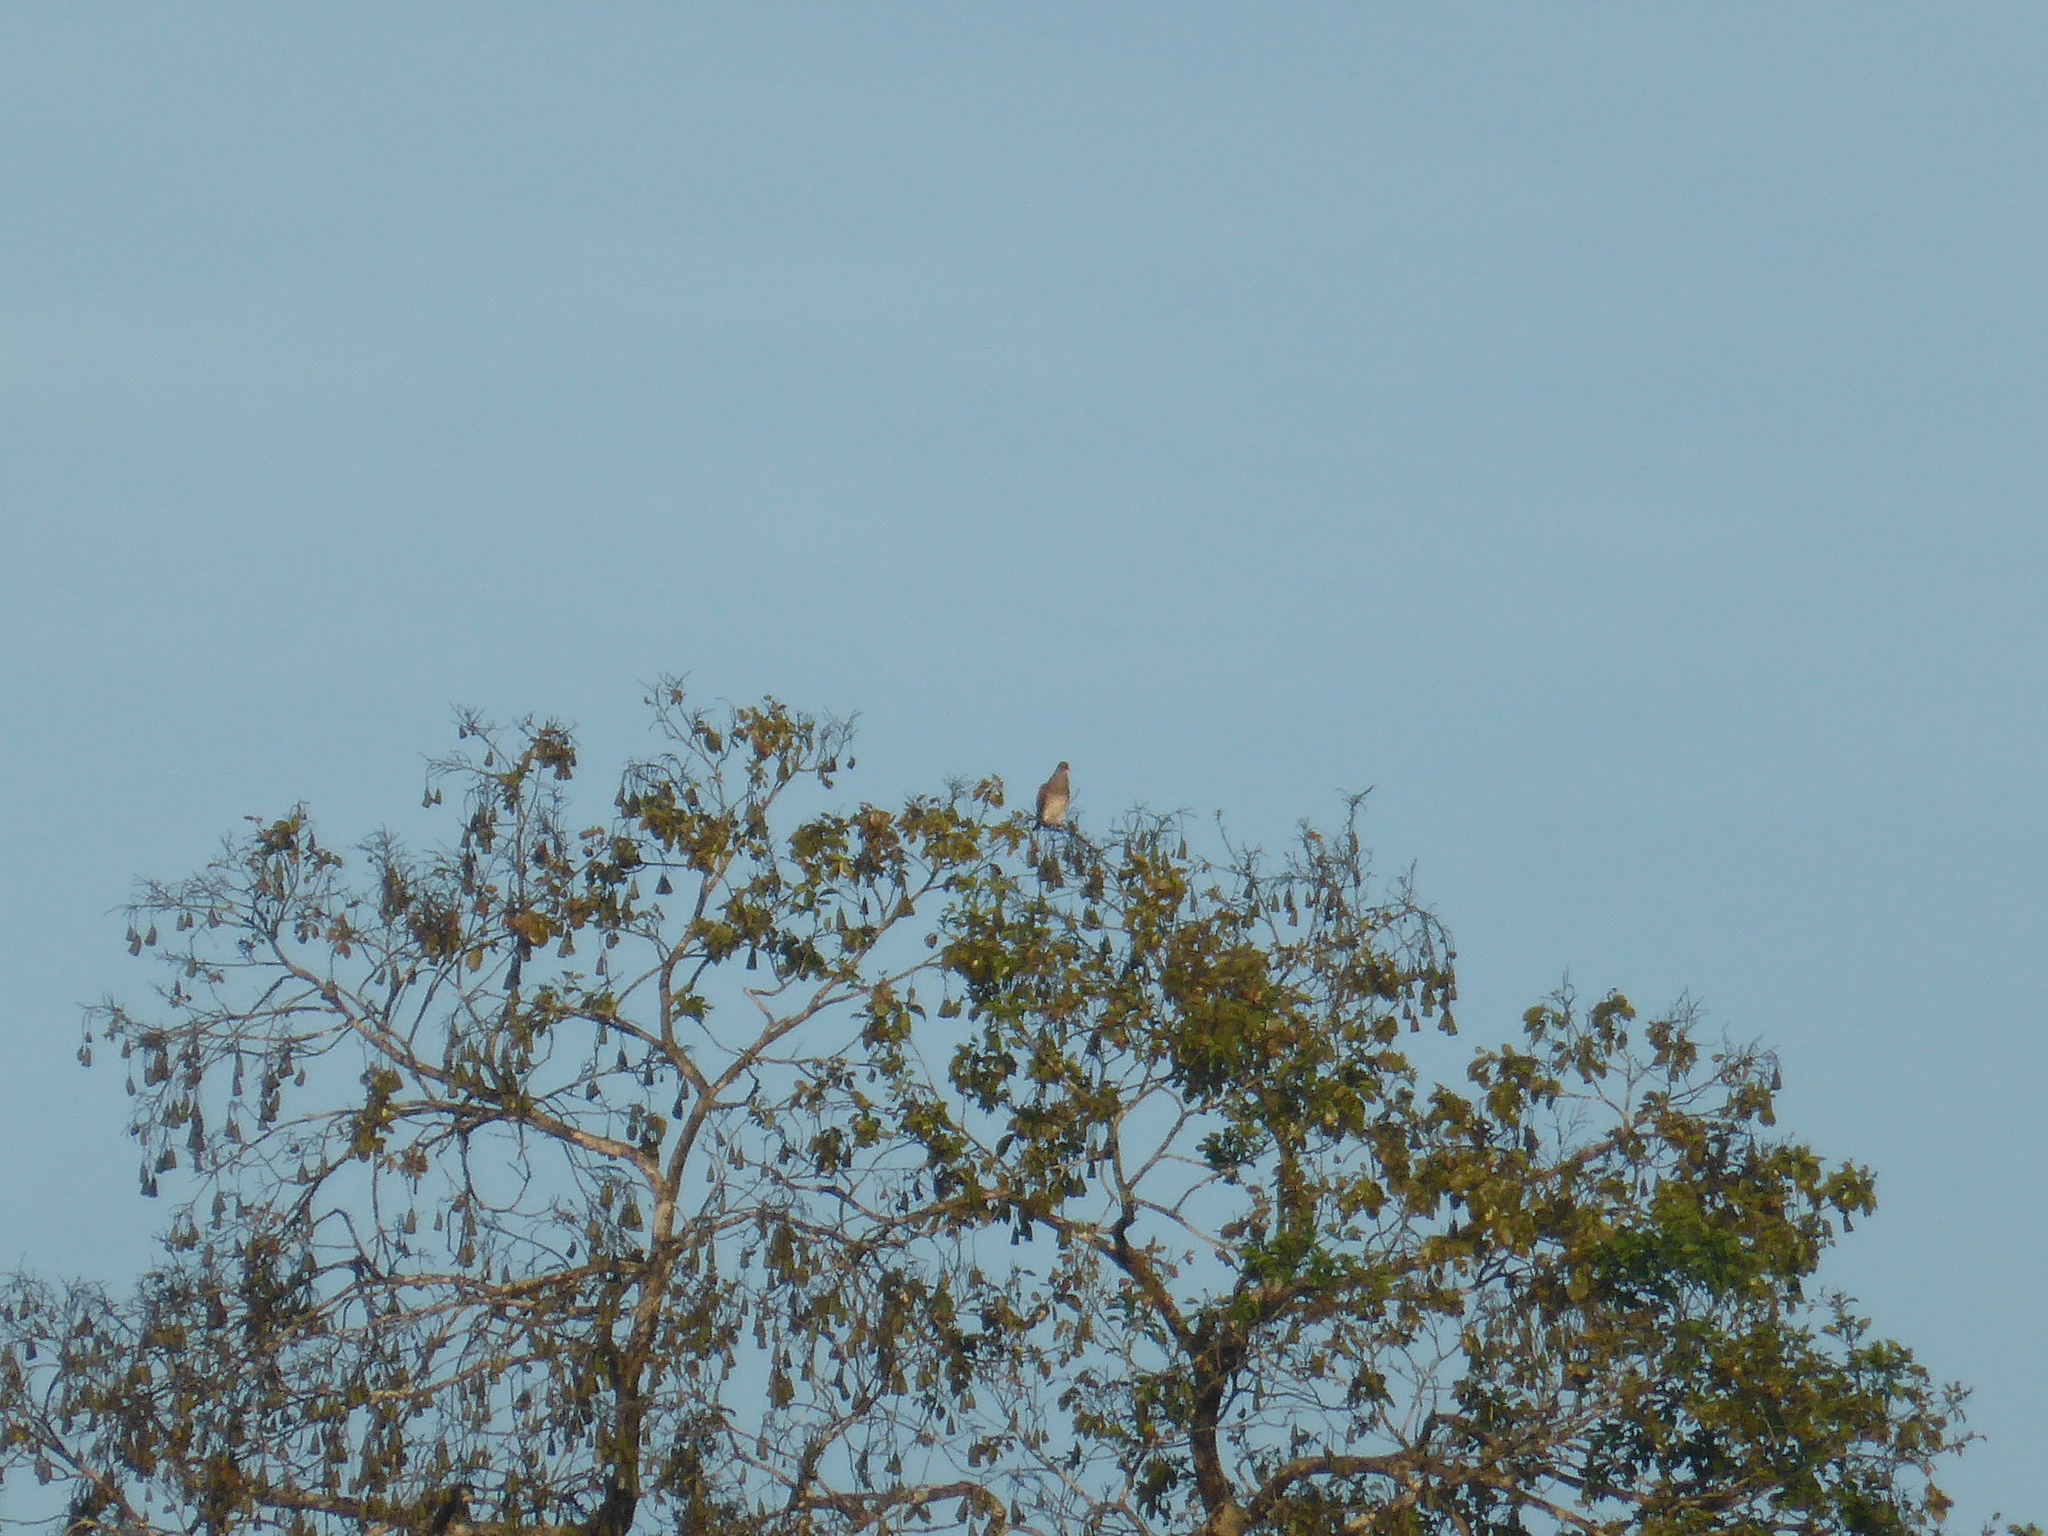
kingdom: Animalia
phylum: Chordata
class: Aves
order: Columbiformes
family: Columbidae
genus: Patagioenas
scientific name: Patagioenas speciosa
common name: Scaled pigeon
